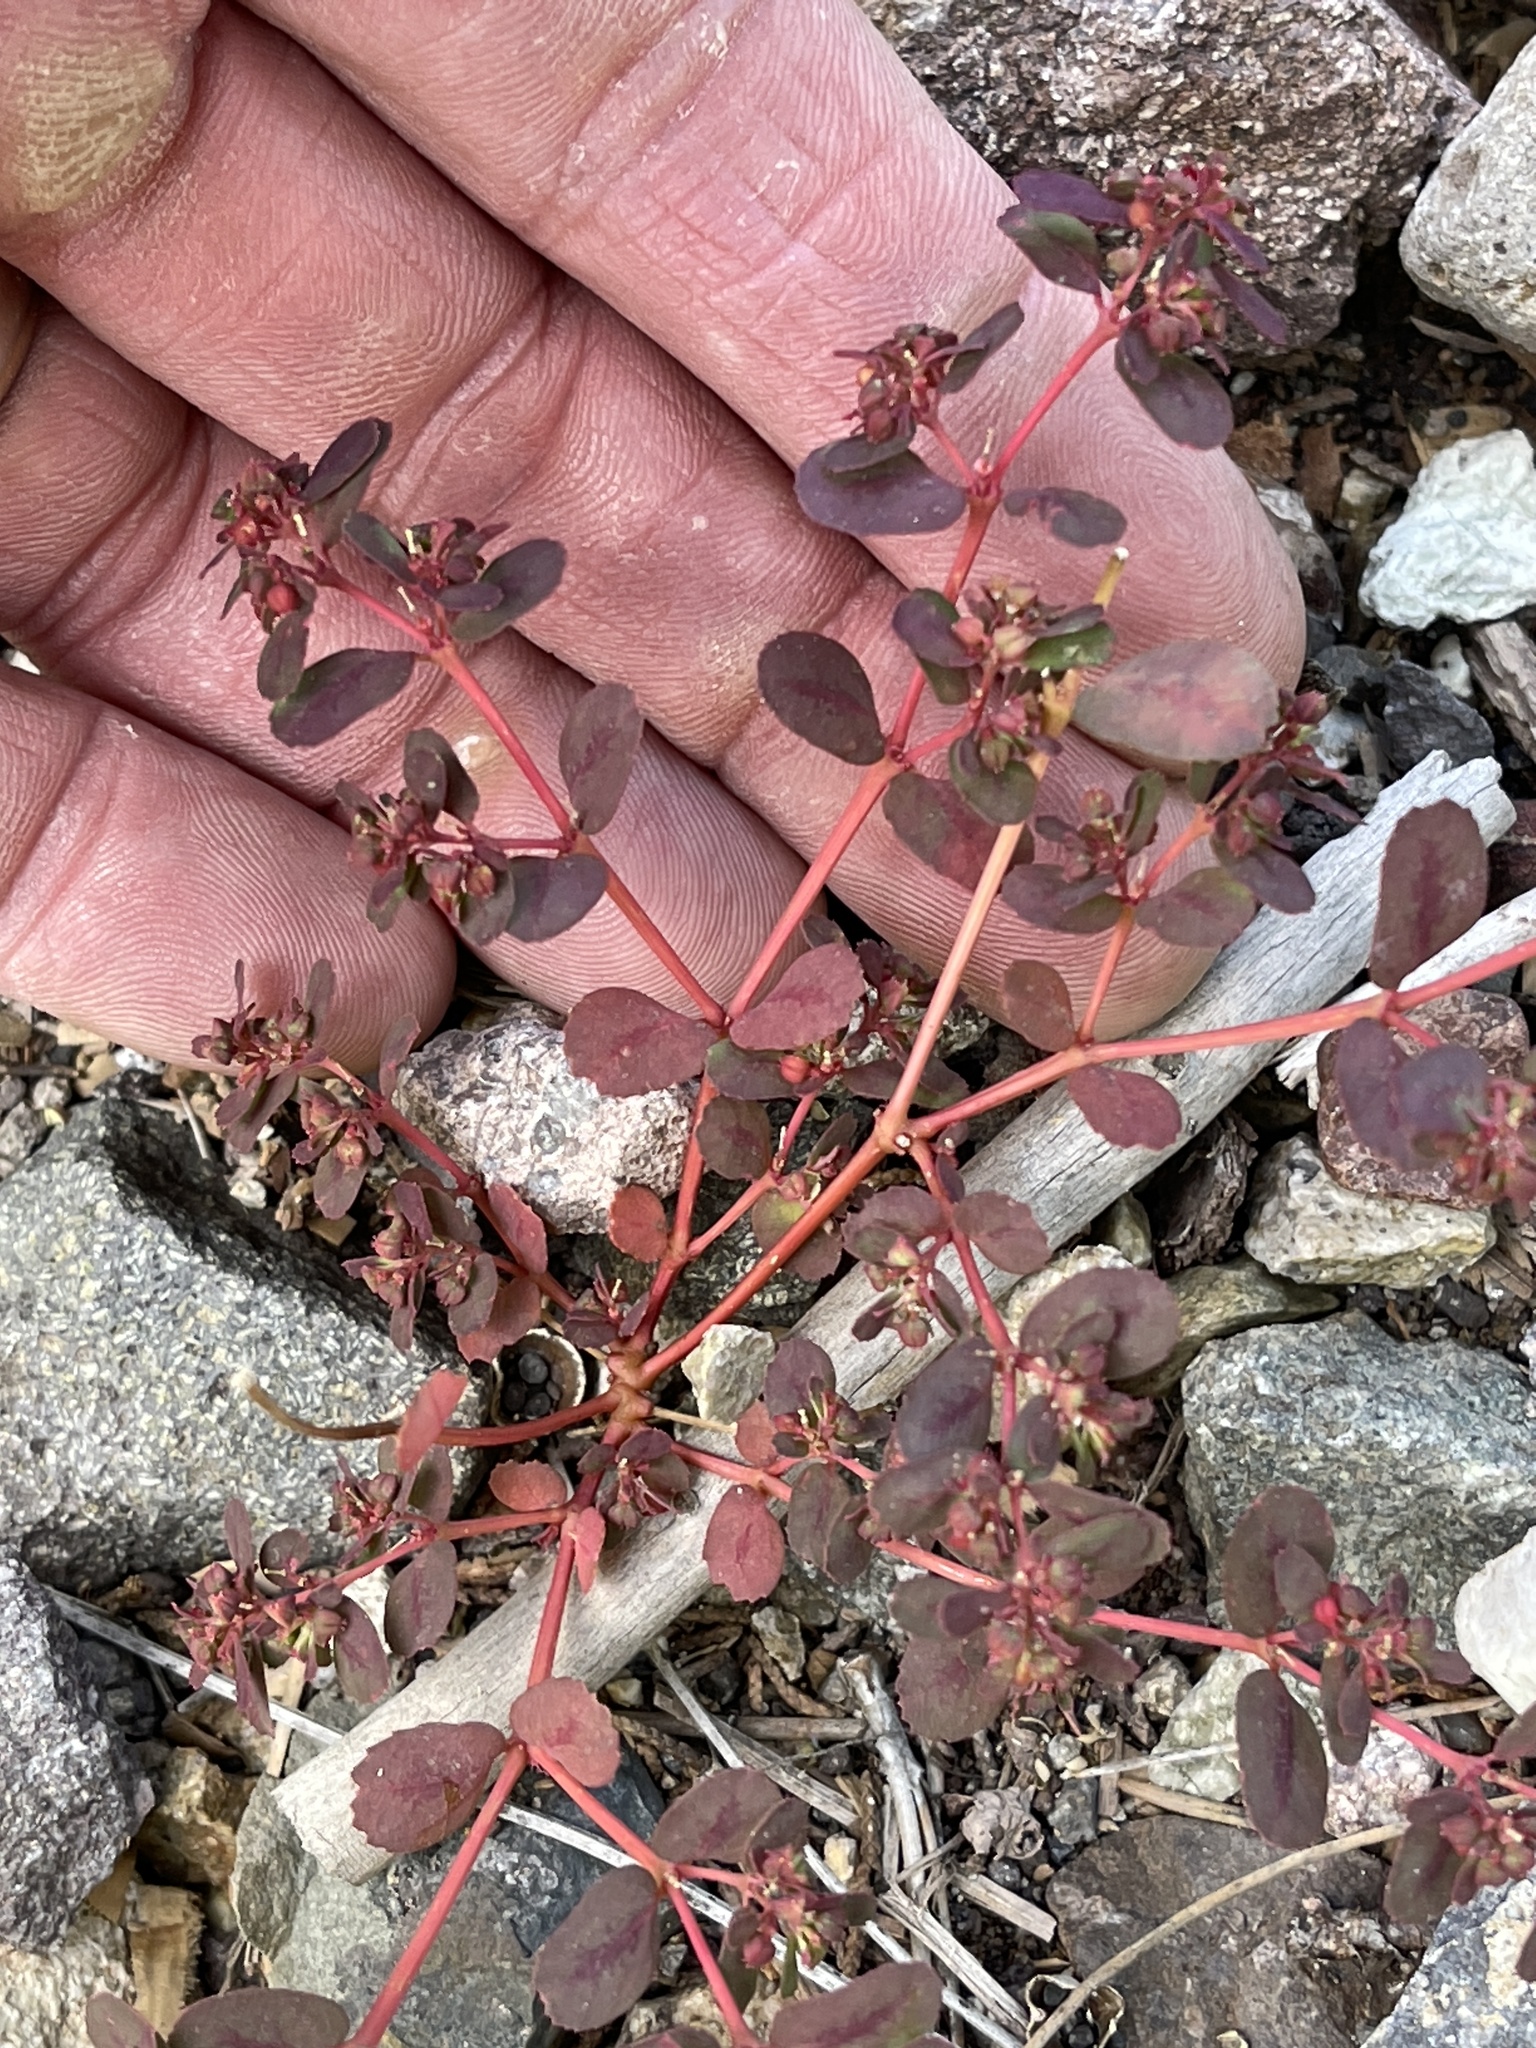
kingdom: Plantae
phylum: Tracheophyta
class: Magnoliopsida
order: Malpighiales
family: Euphorbiaceae
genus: Euphorbia
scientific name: Euphorbia serpillifolia
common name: Thyme-leaf spurge
